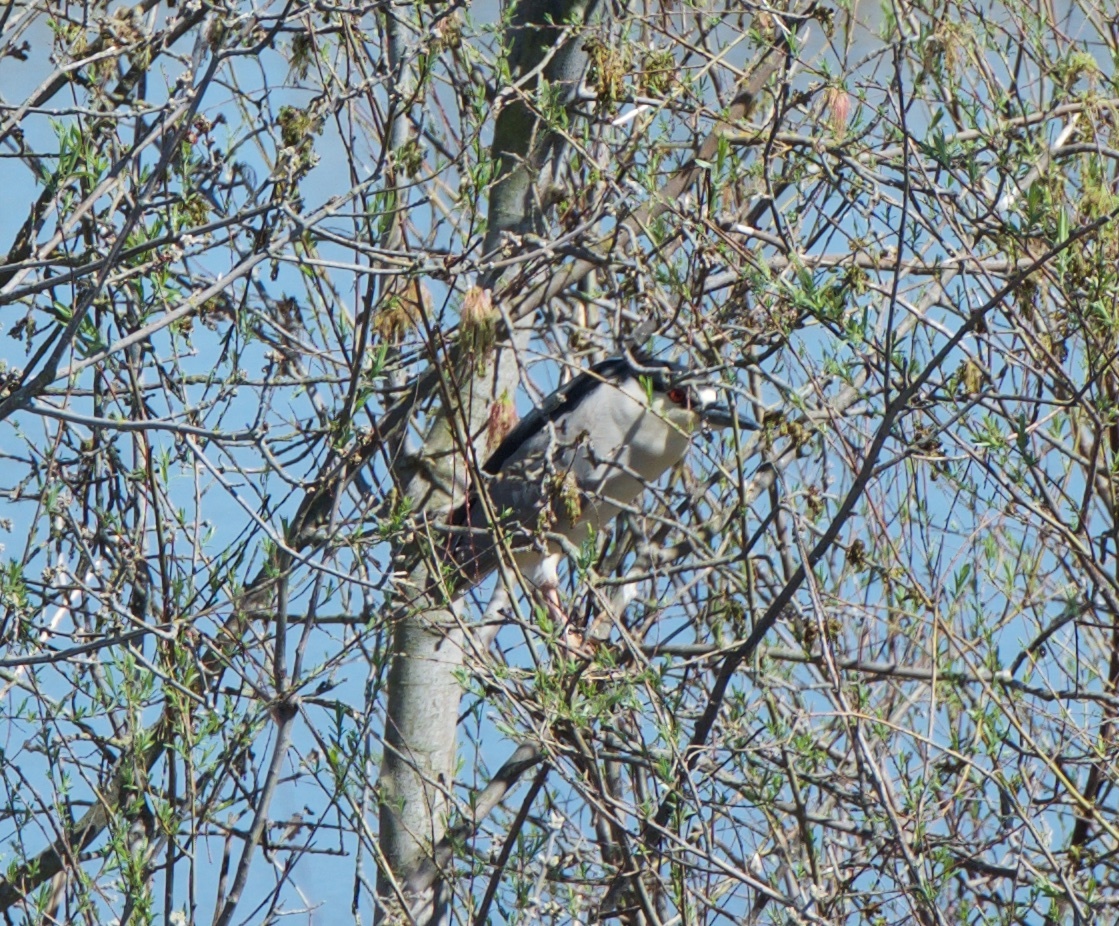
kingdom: Animalia
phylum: Chordata
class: Aves
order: Pelecaniformes
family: Ardeidae
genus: Nycticorax
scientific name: Nycticorax nycticorax
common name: Black-crowned night heron
